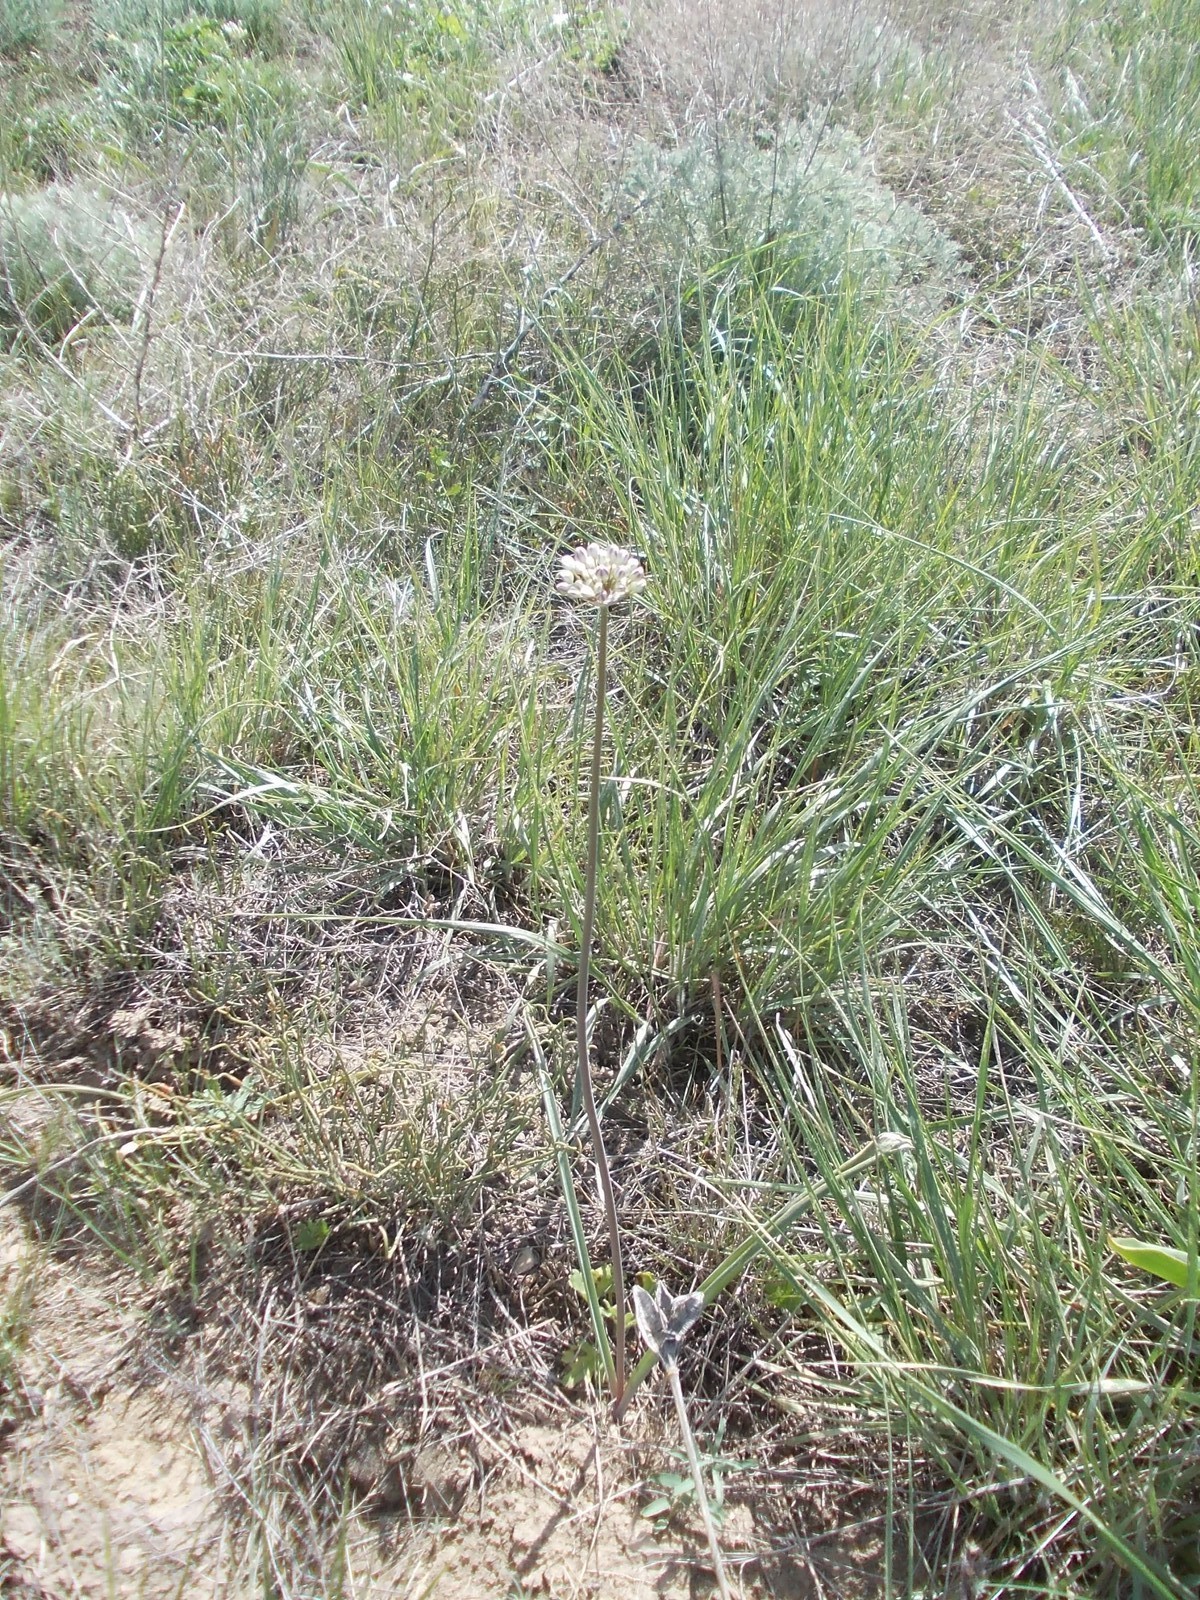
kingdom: Plantae
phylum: Tracheophyta
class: Liliopsida
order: Asparagales
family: Amaryllidaceae
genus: Allium
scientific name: Allium tulipifolium
